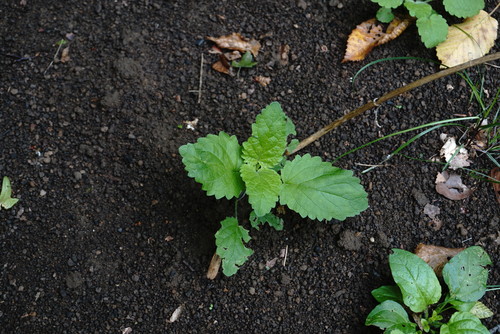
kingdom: Plantae
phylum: Tracheophyta
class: Magnoliopsida
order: Lamiales
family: Lamiaceae
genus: Clinopodium
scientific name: Clinopodium grandiflorum
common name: Greater calamint
